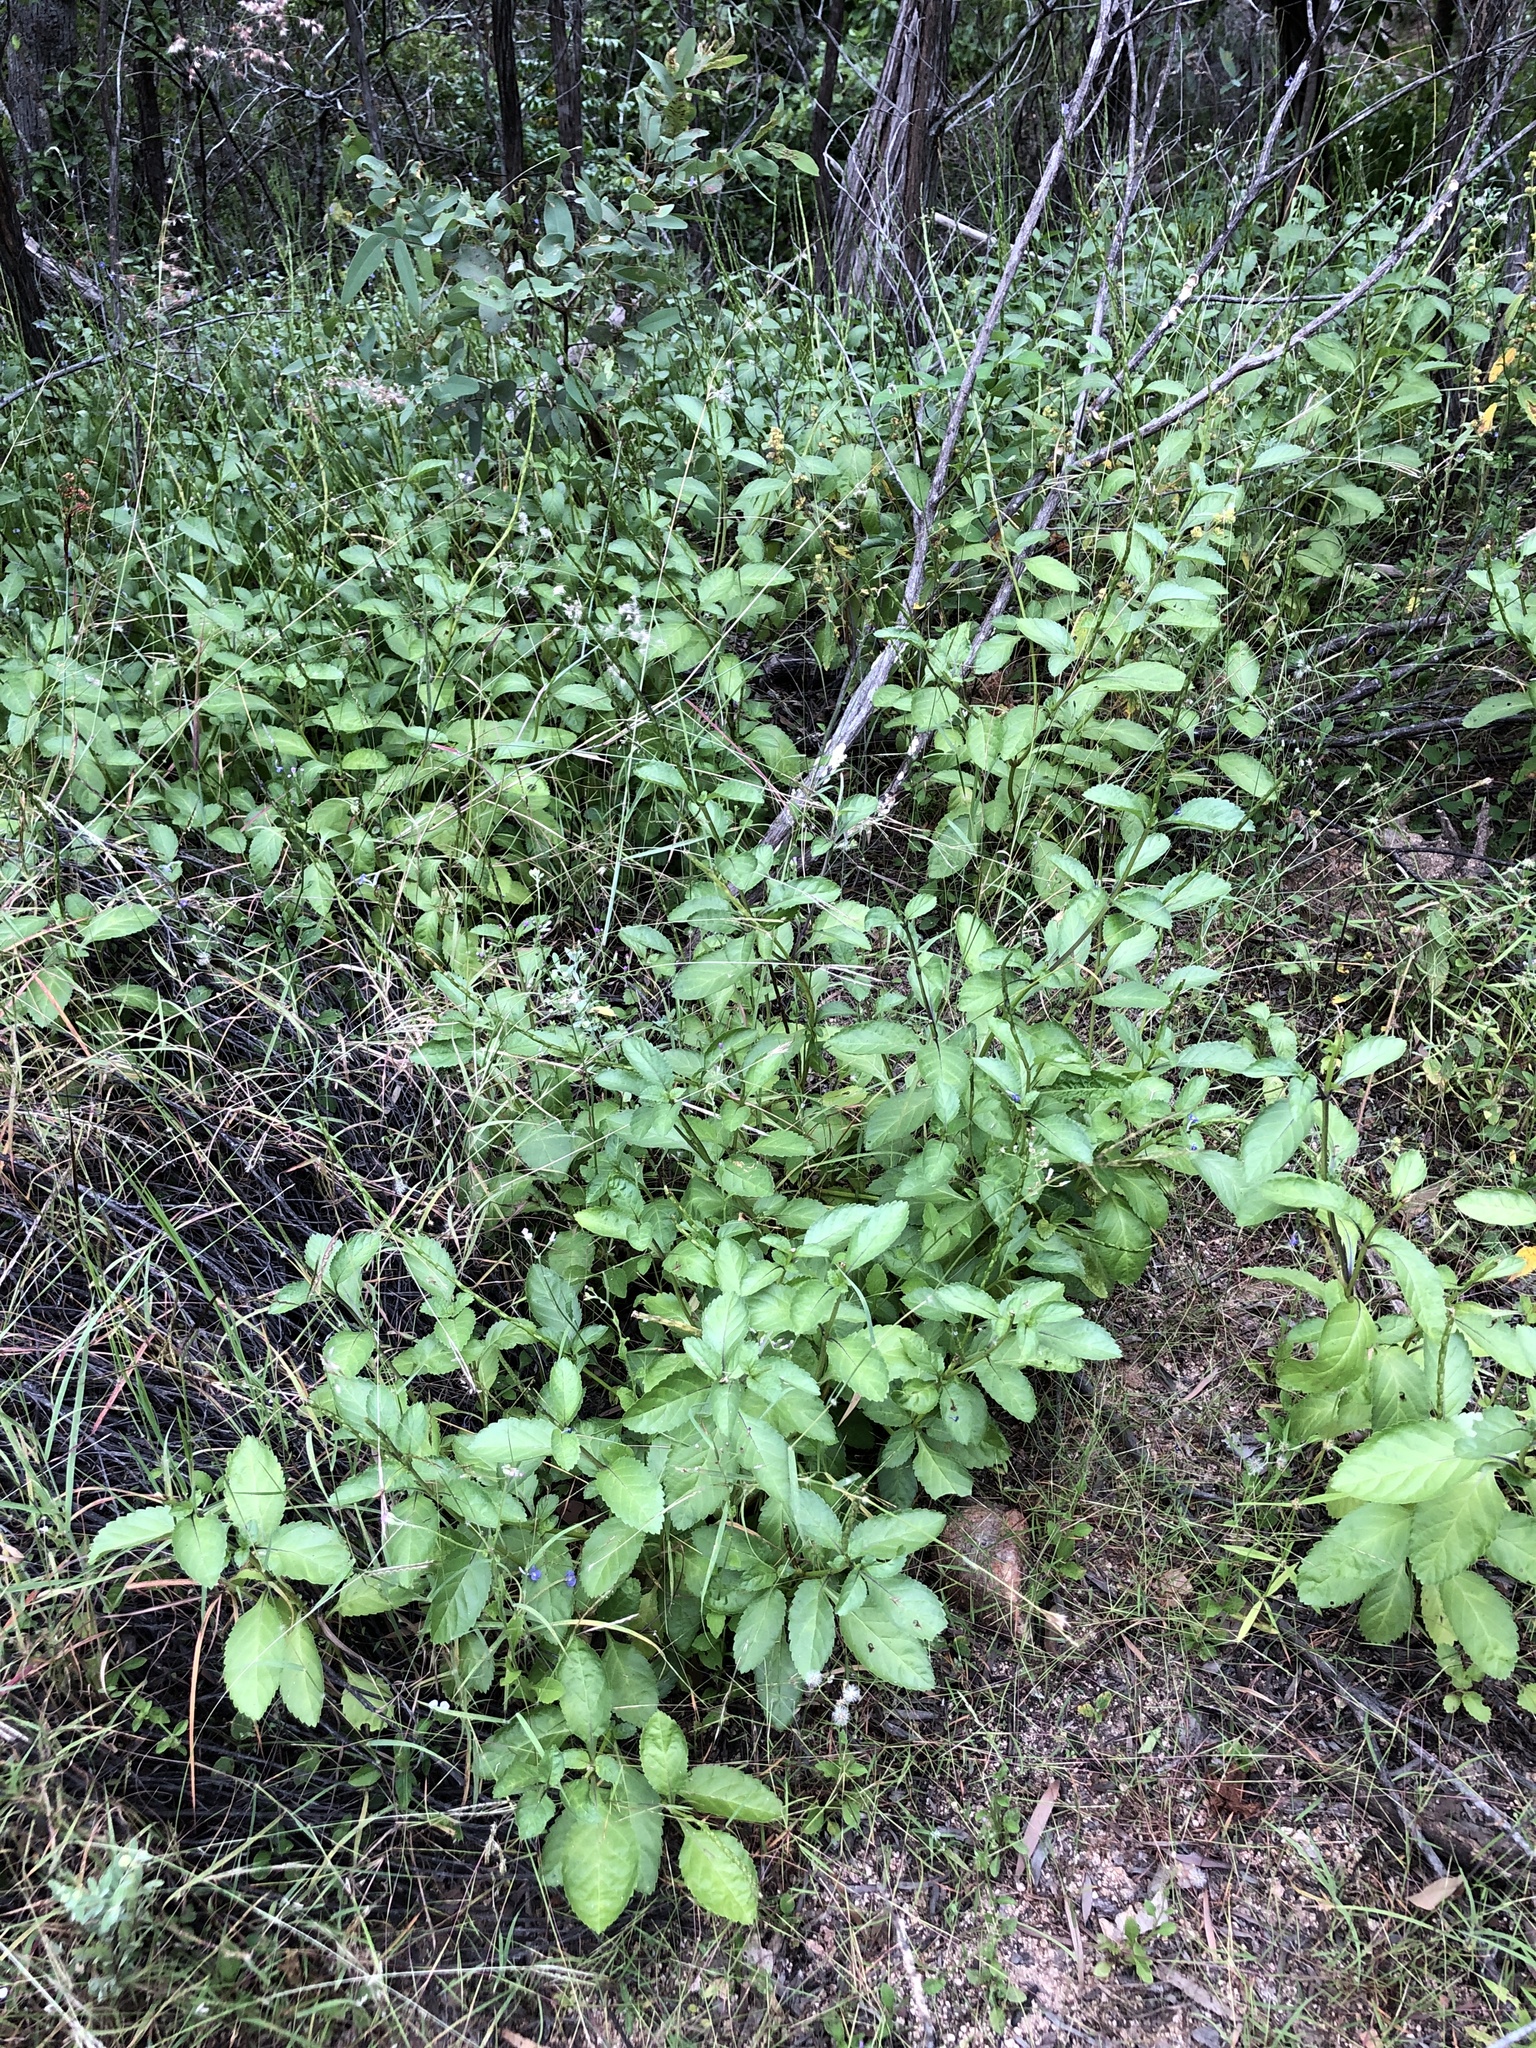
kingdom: Plantae
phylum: Tracheophyta
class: Magnoliopsida
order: Lamiales
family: Verbenaceae
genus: Stachytarpheta
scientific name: Stachytarpheta jamaicensis
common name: Light-blue snakeweed
